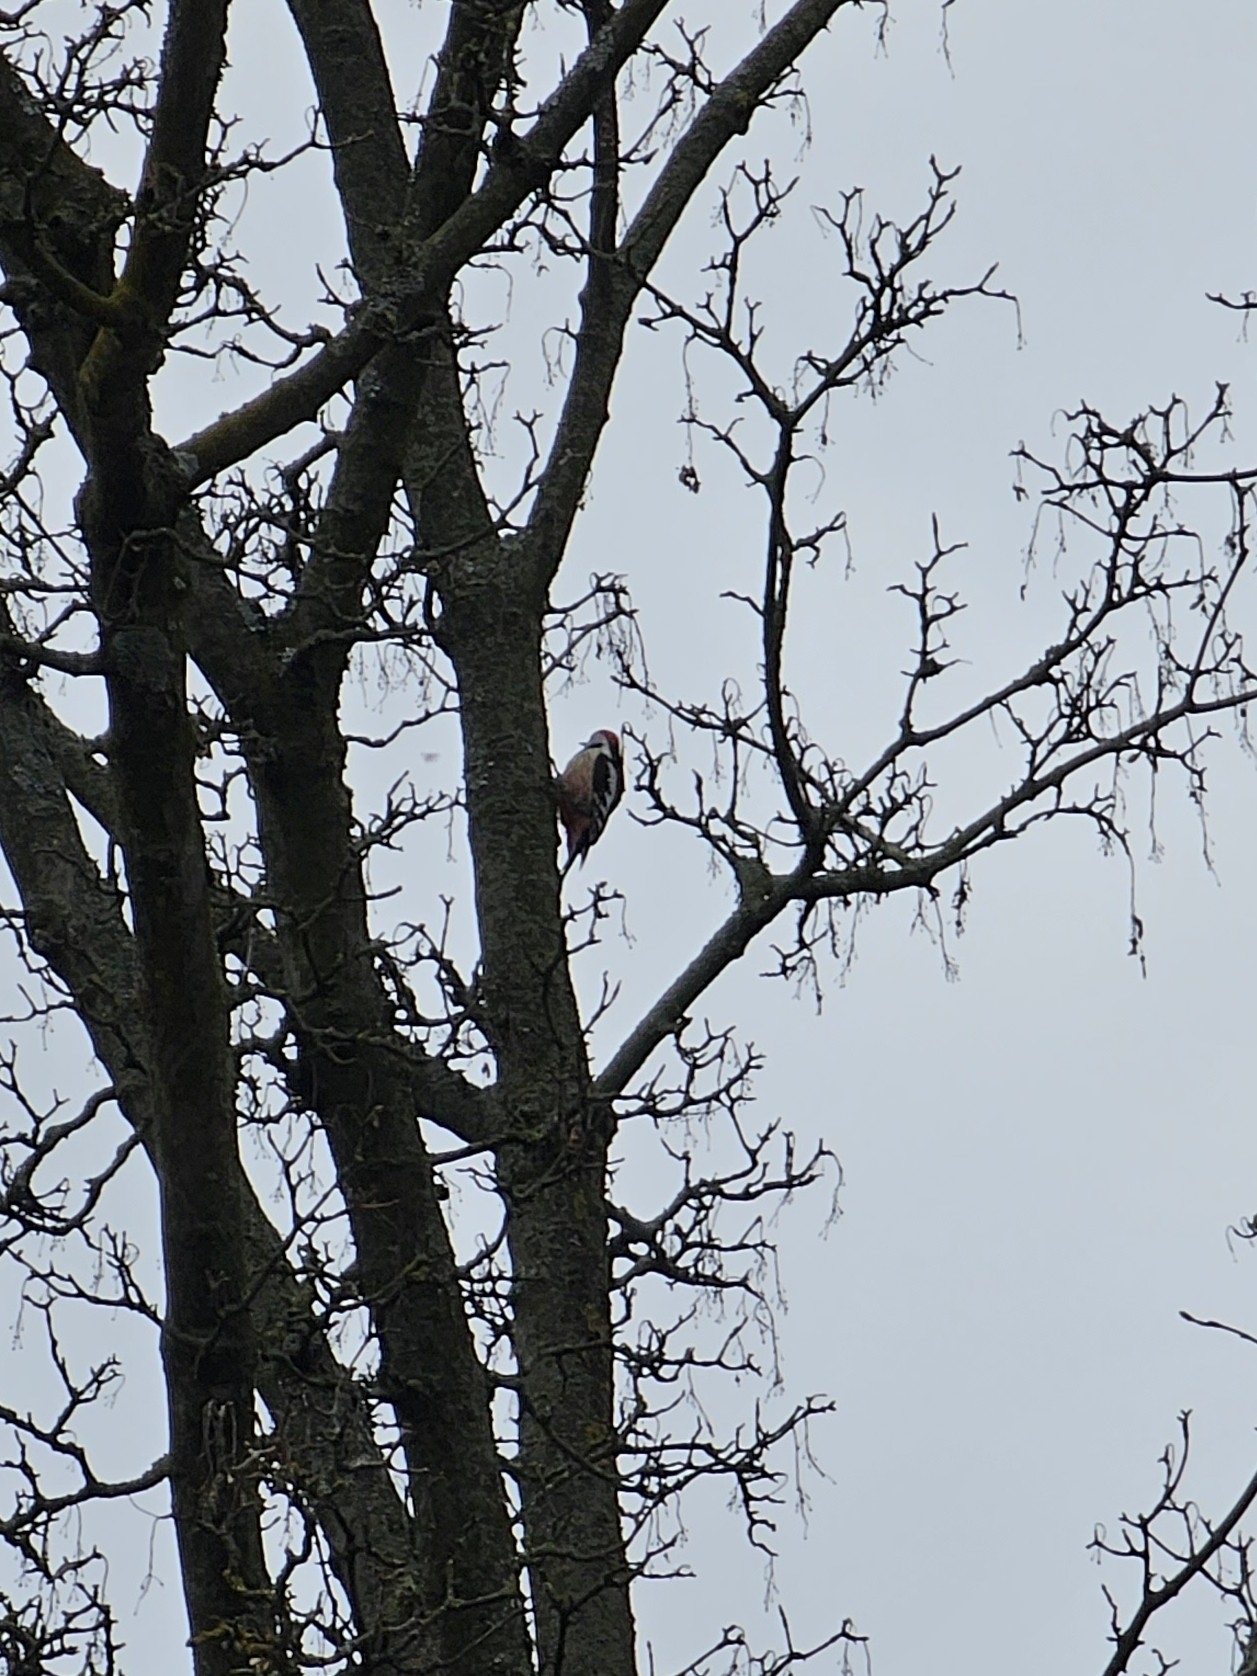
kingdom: Animalia
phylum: Chordata
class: Aves
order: Piciformes
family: Picidae
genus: Dendrocoptes
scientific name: Dendrocoptes medius
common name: Middle spotted woodpecker
